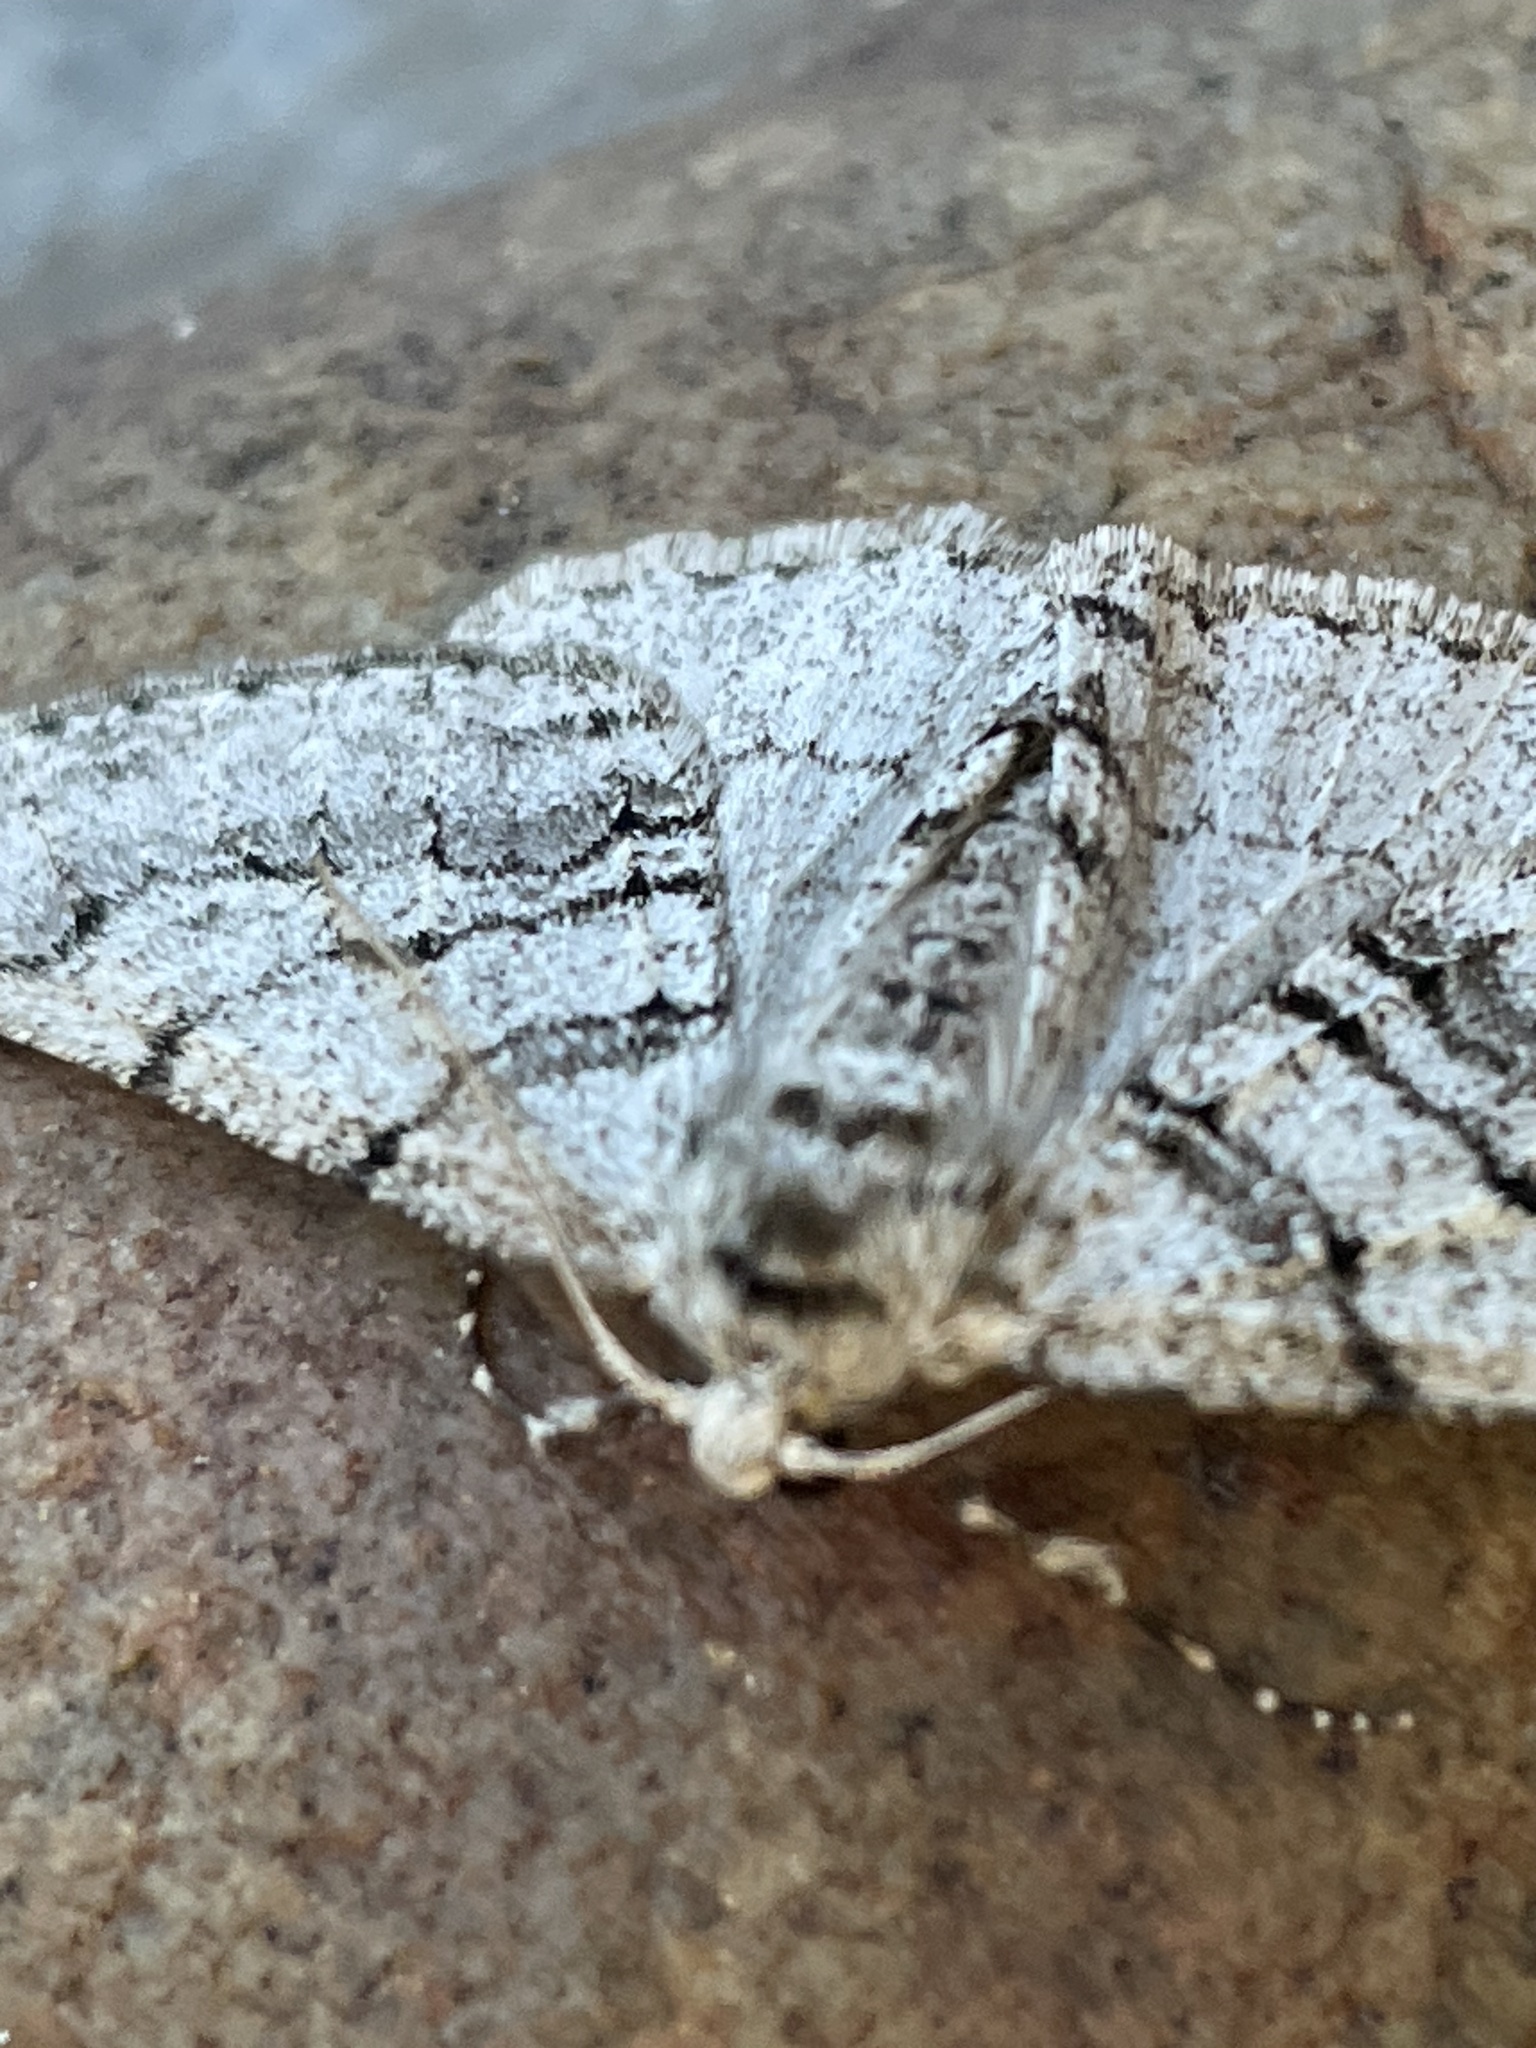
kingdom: Animalia
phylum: Arthropoda
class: Insecta
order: Lepidoptera
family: Geometridae
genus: Phigalia
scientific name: Phigalia titea
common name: Spiny looper
